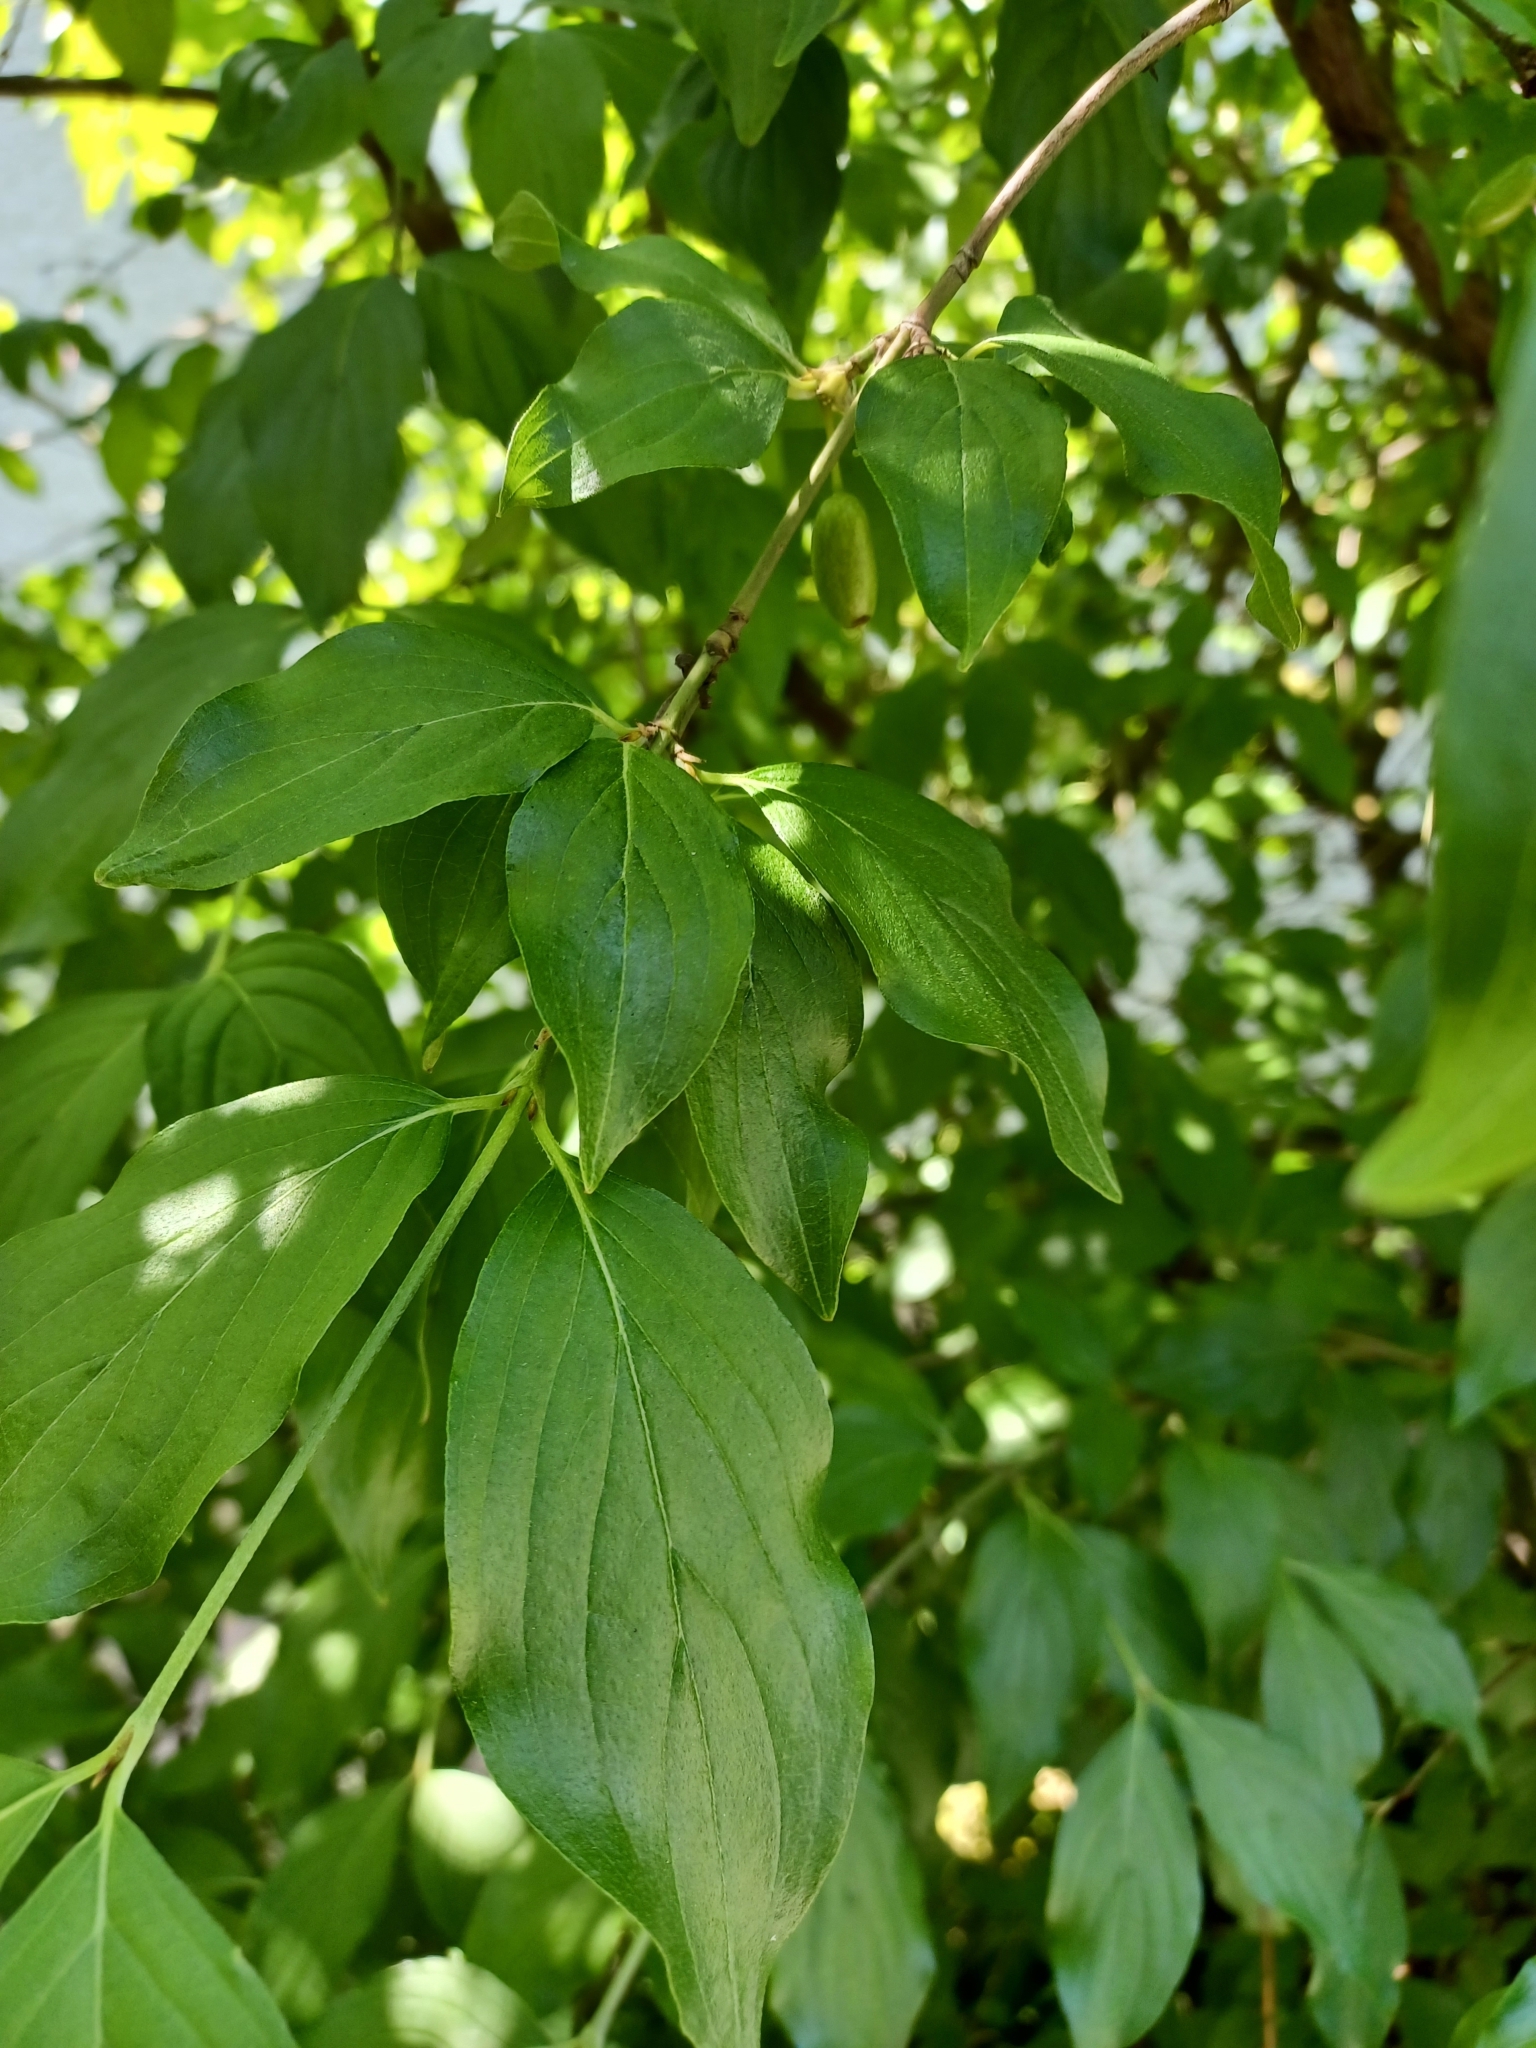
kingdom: Plantae
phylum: Tracheophyta
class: Magnoliopsida
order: Cornales
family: Cornaceae
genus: Cornus
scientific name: Cornus mas
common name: Cornelian-cherry
